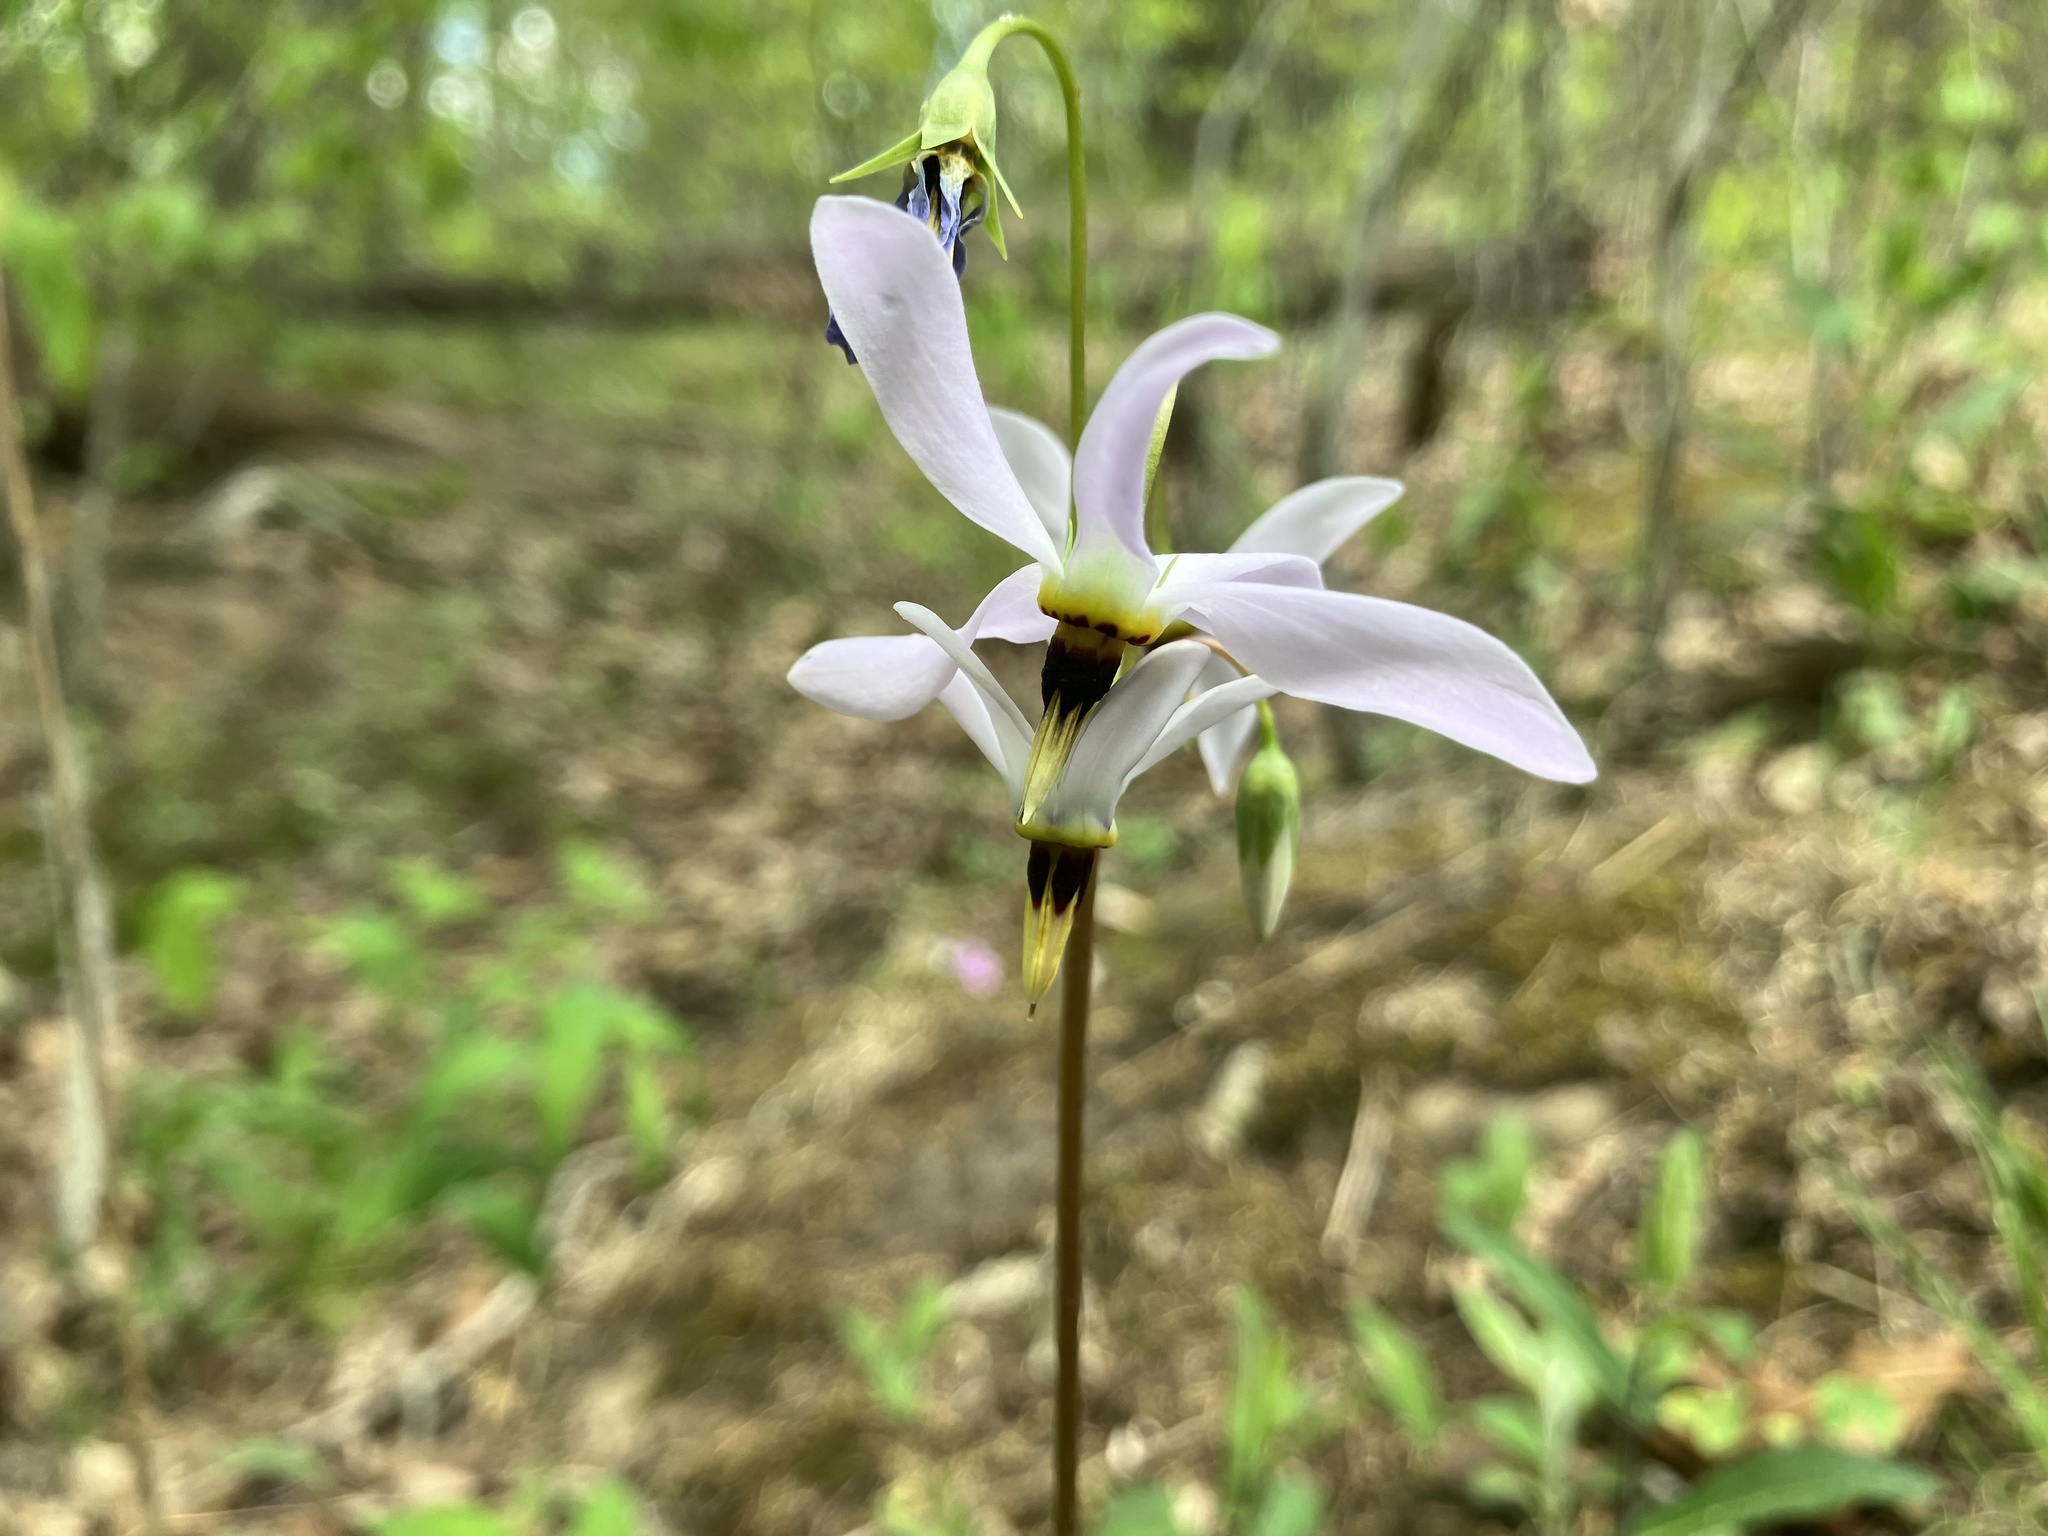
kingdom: Plantae
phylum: Tracheophyta
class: Magnoliopsida
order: Ericales
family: Primulaceae
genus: Dodecatheon
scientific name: Dodecatheon meadia
